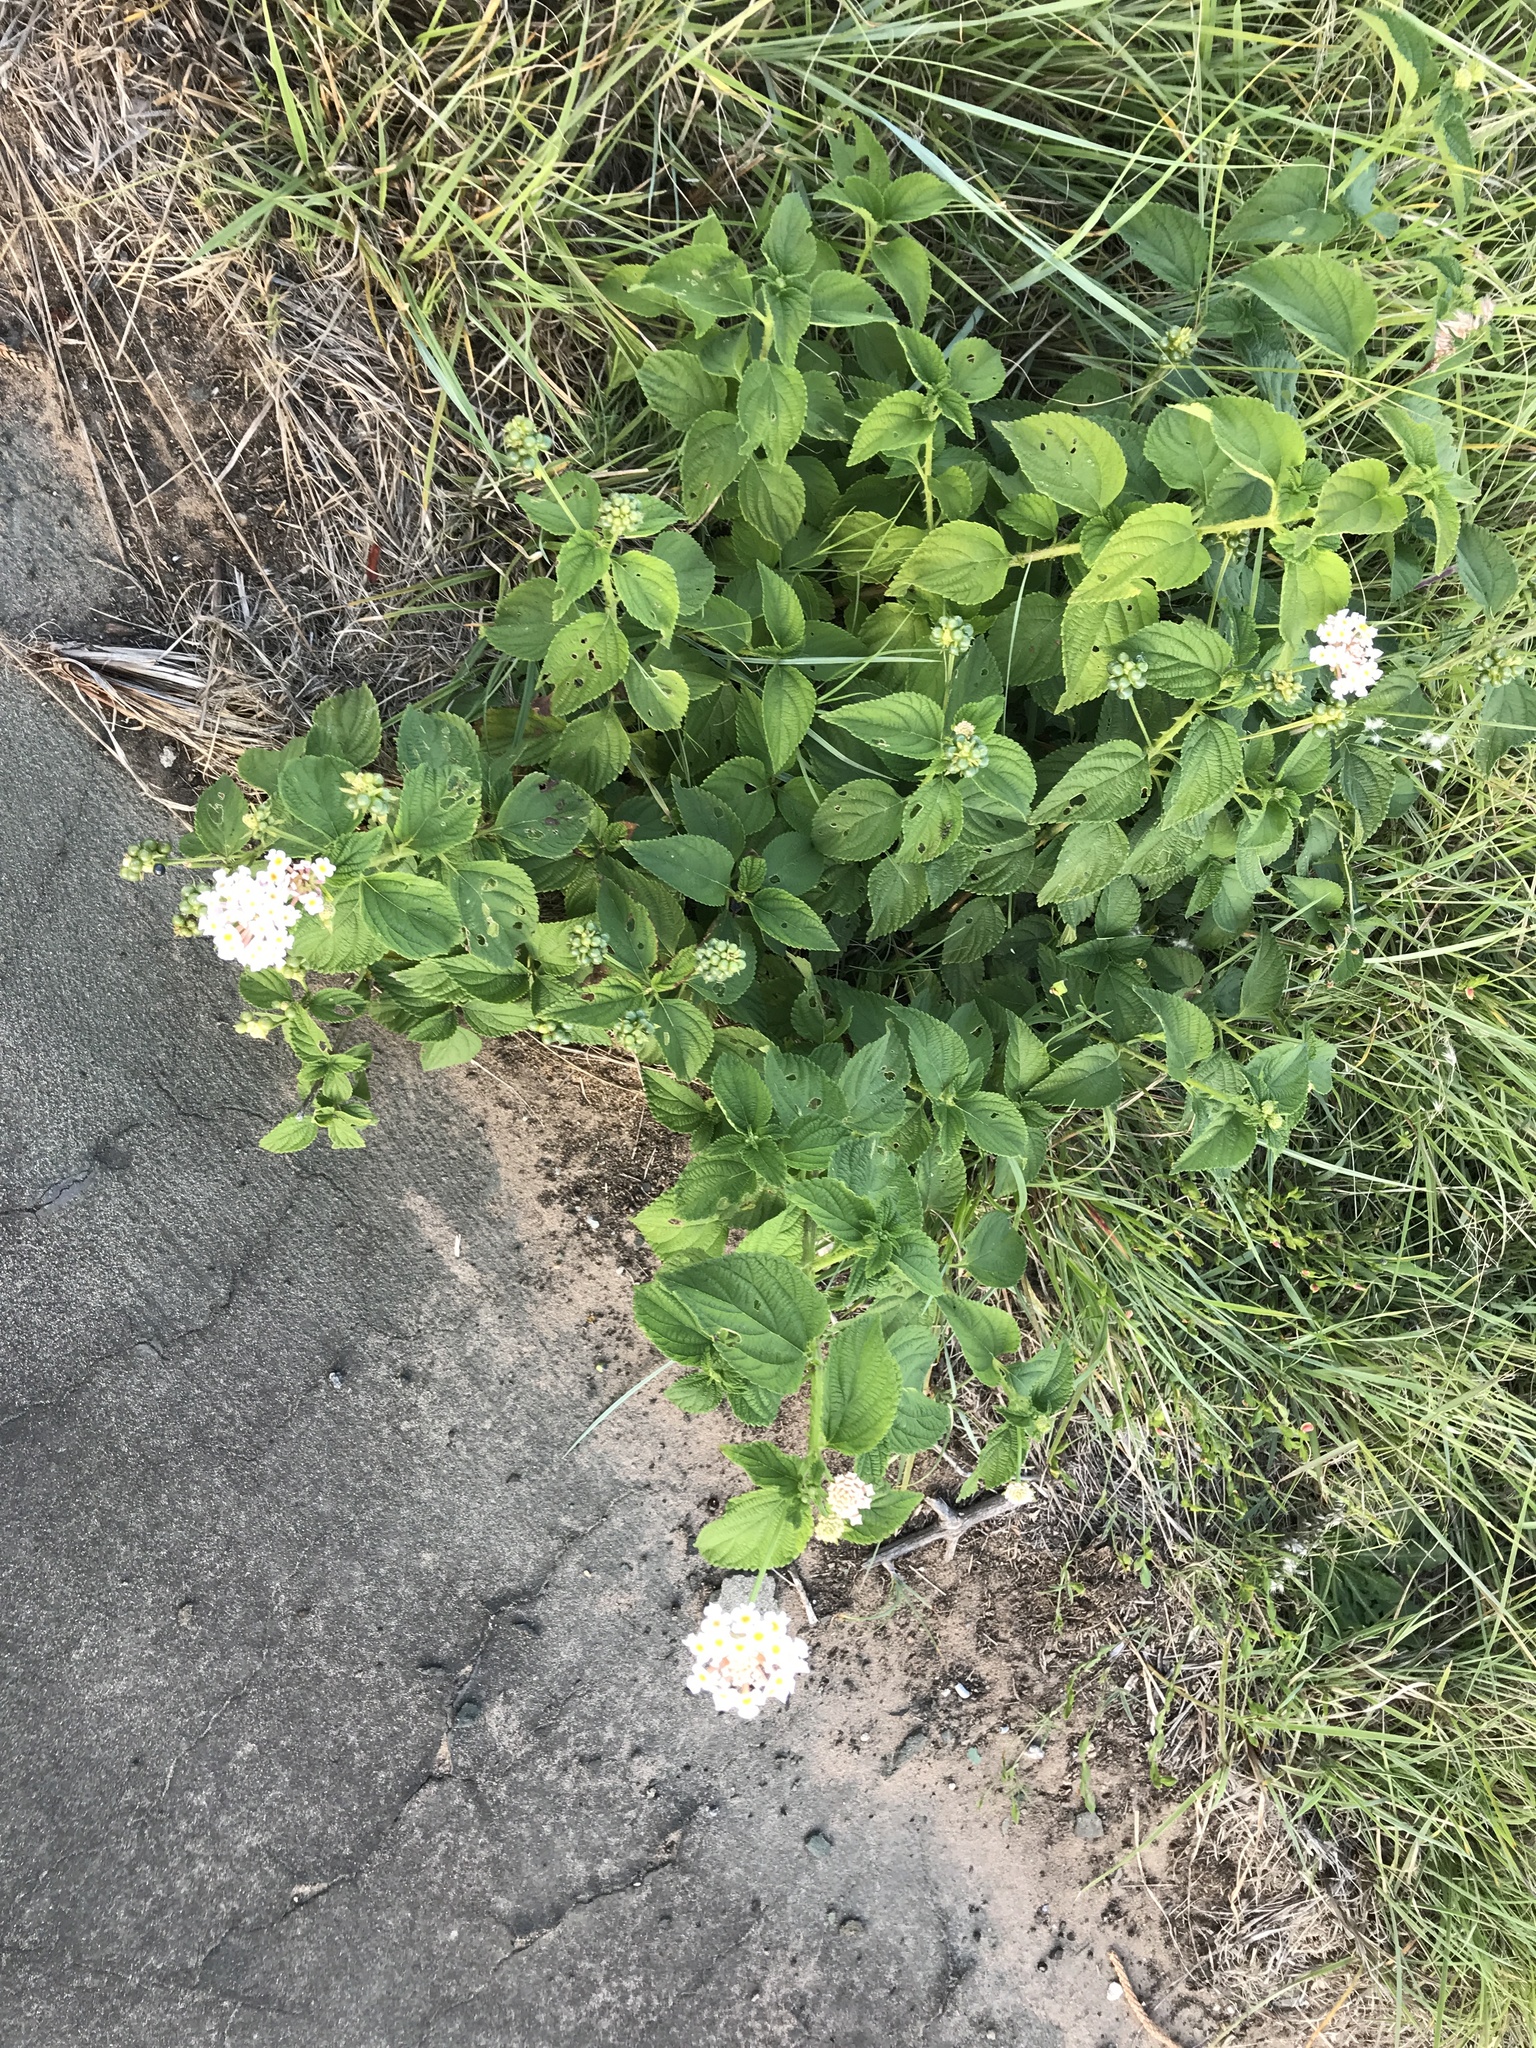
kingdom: Plantae
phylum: Tracheophyta
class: Magnoliopsida
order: Lamiales
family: Verbenaceae
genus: Lantana
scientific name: Lantana camara
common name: Lantana
